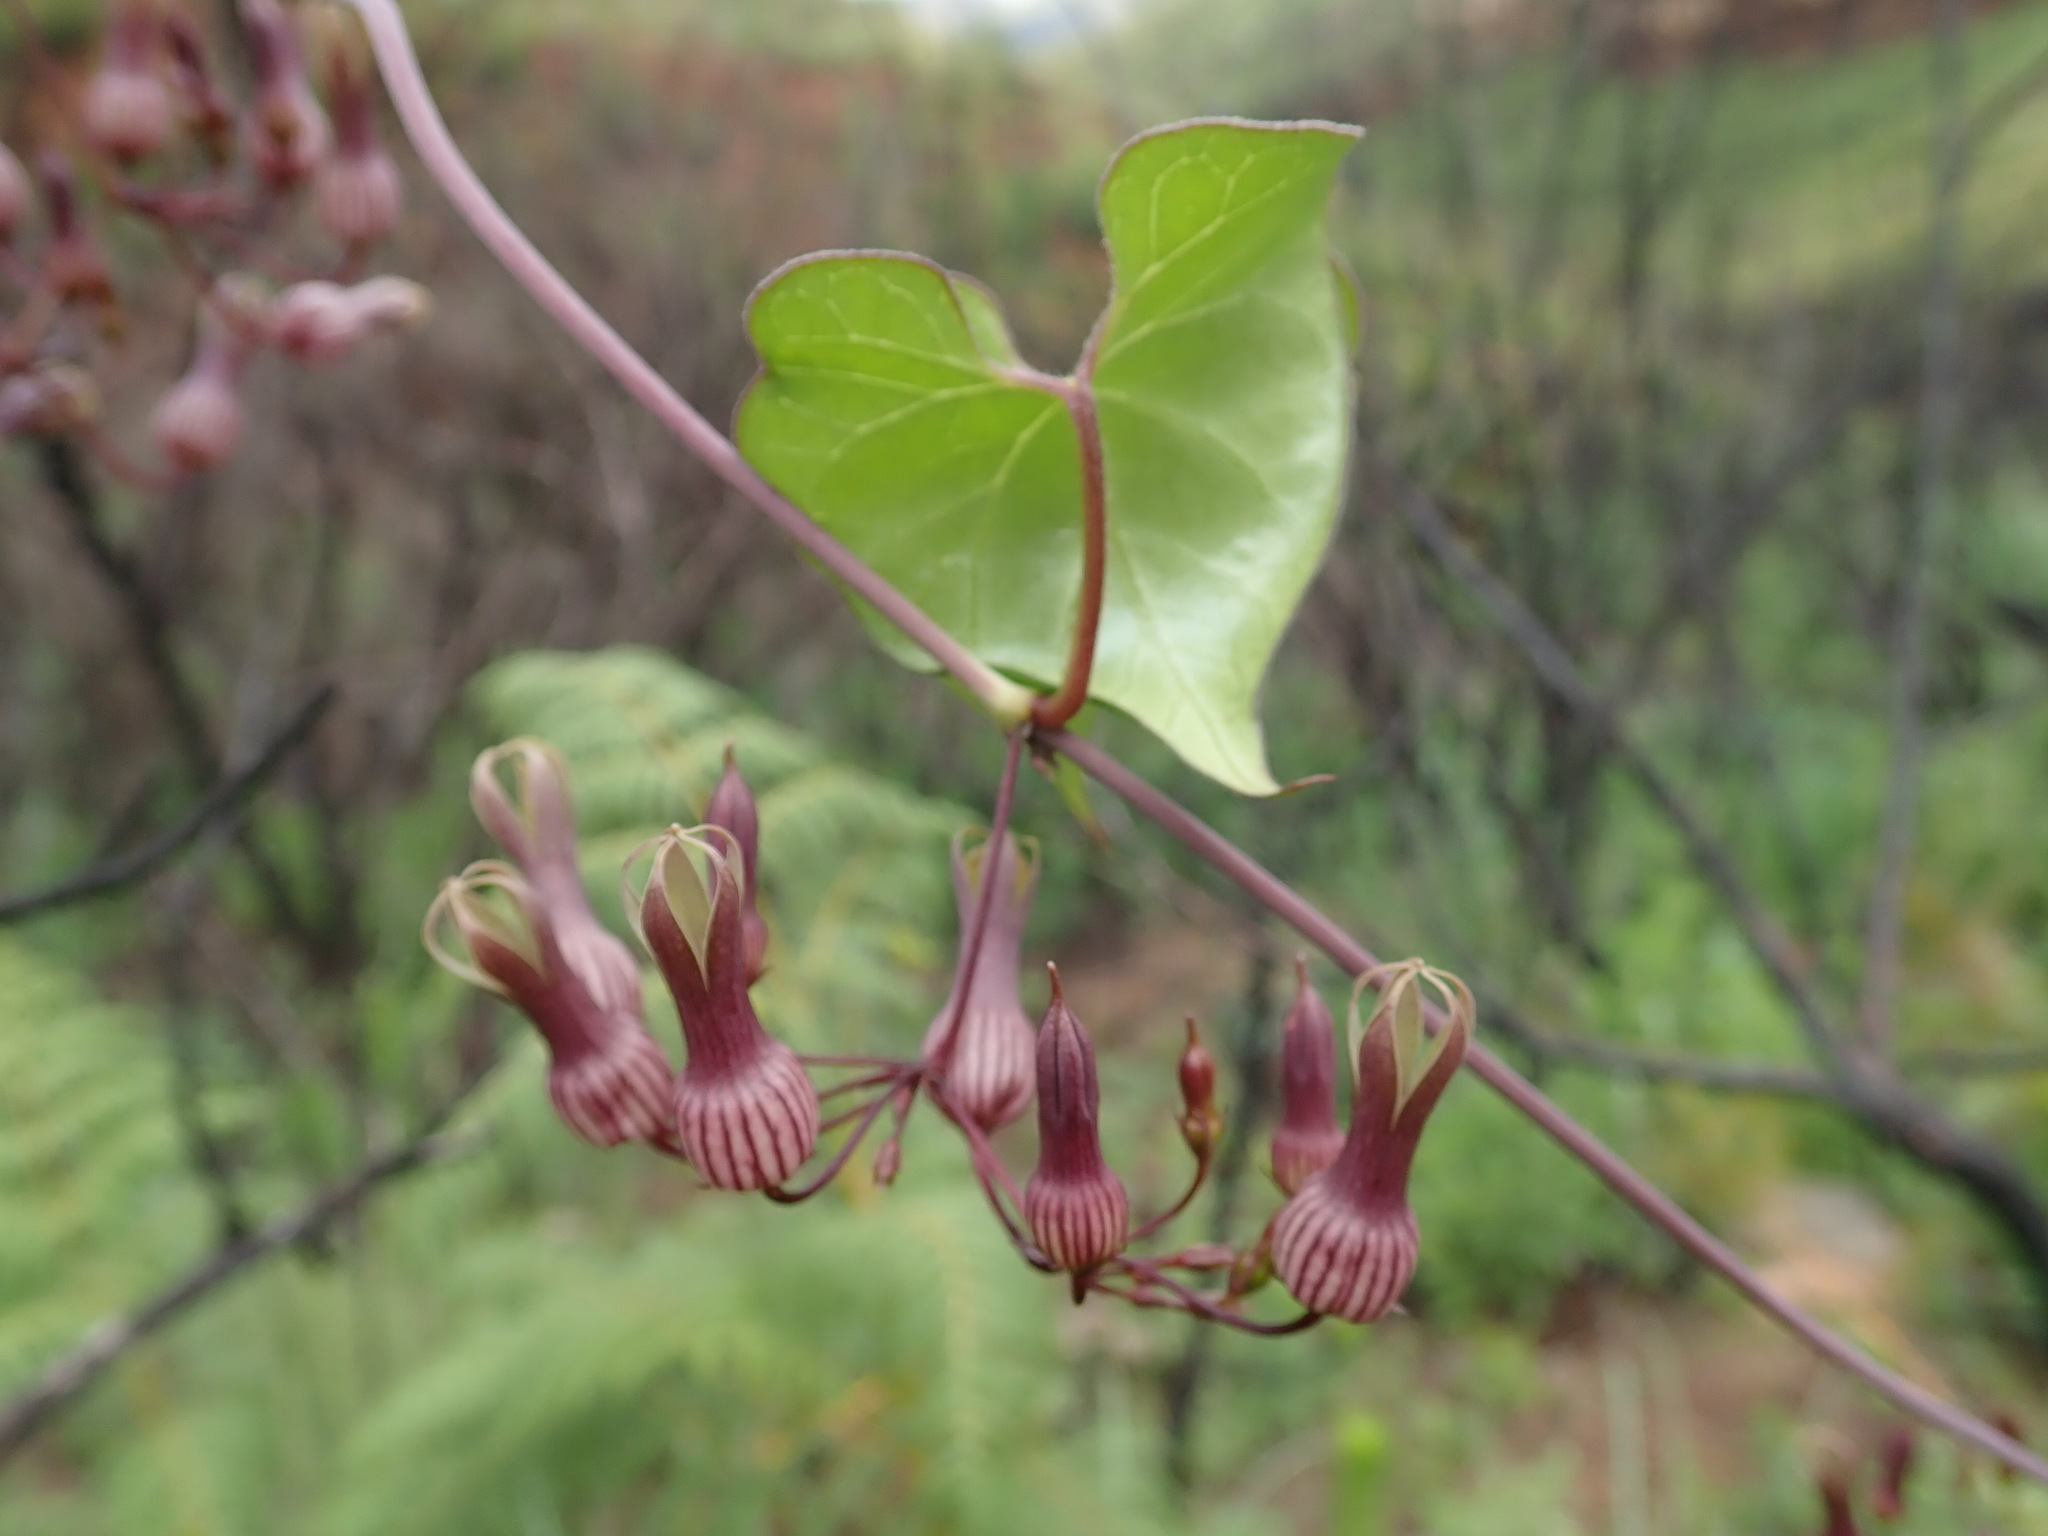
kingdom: Plantae
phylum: Tracheophyta
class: Magnoliopsida
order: Gentianales
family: Apocynaceae
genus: Riocreuxia
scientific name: Riocreuxia picta
